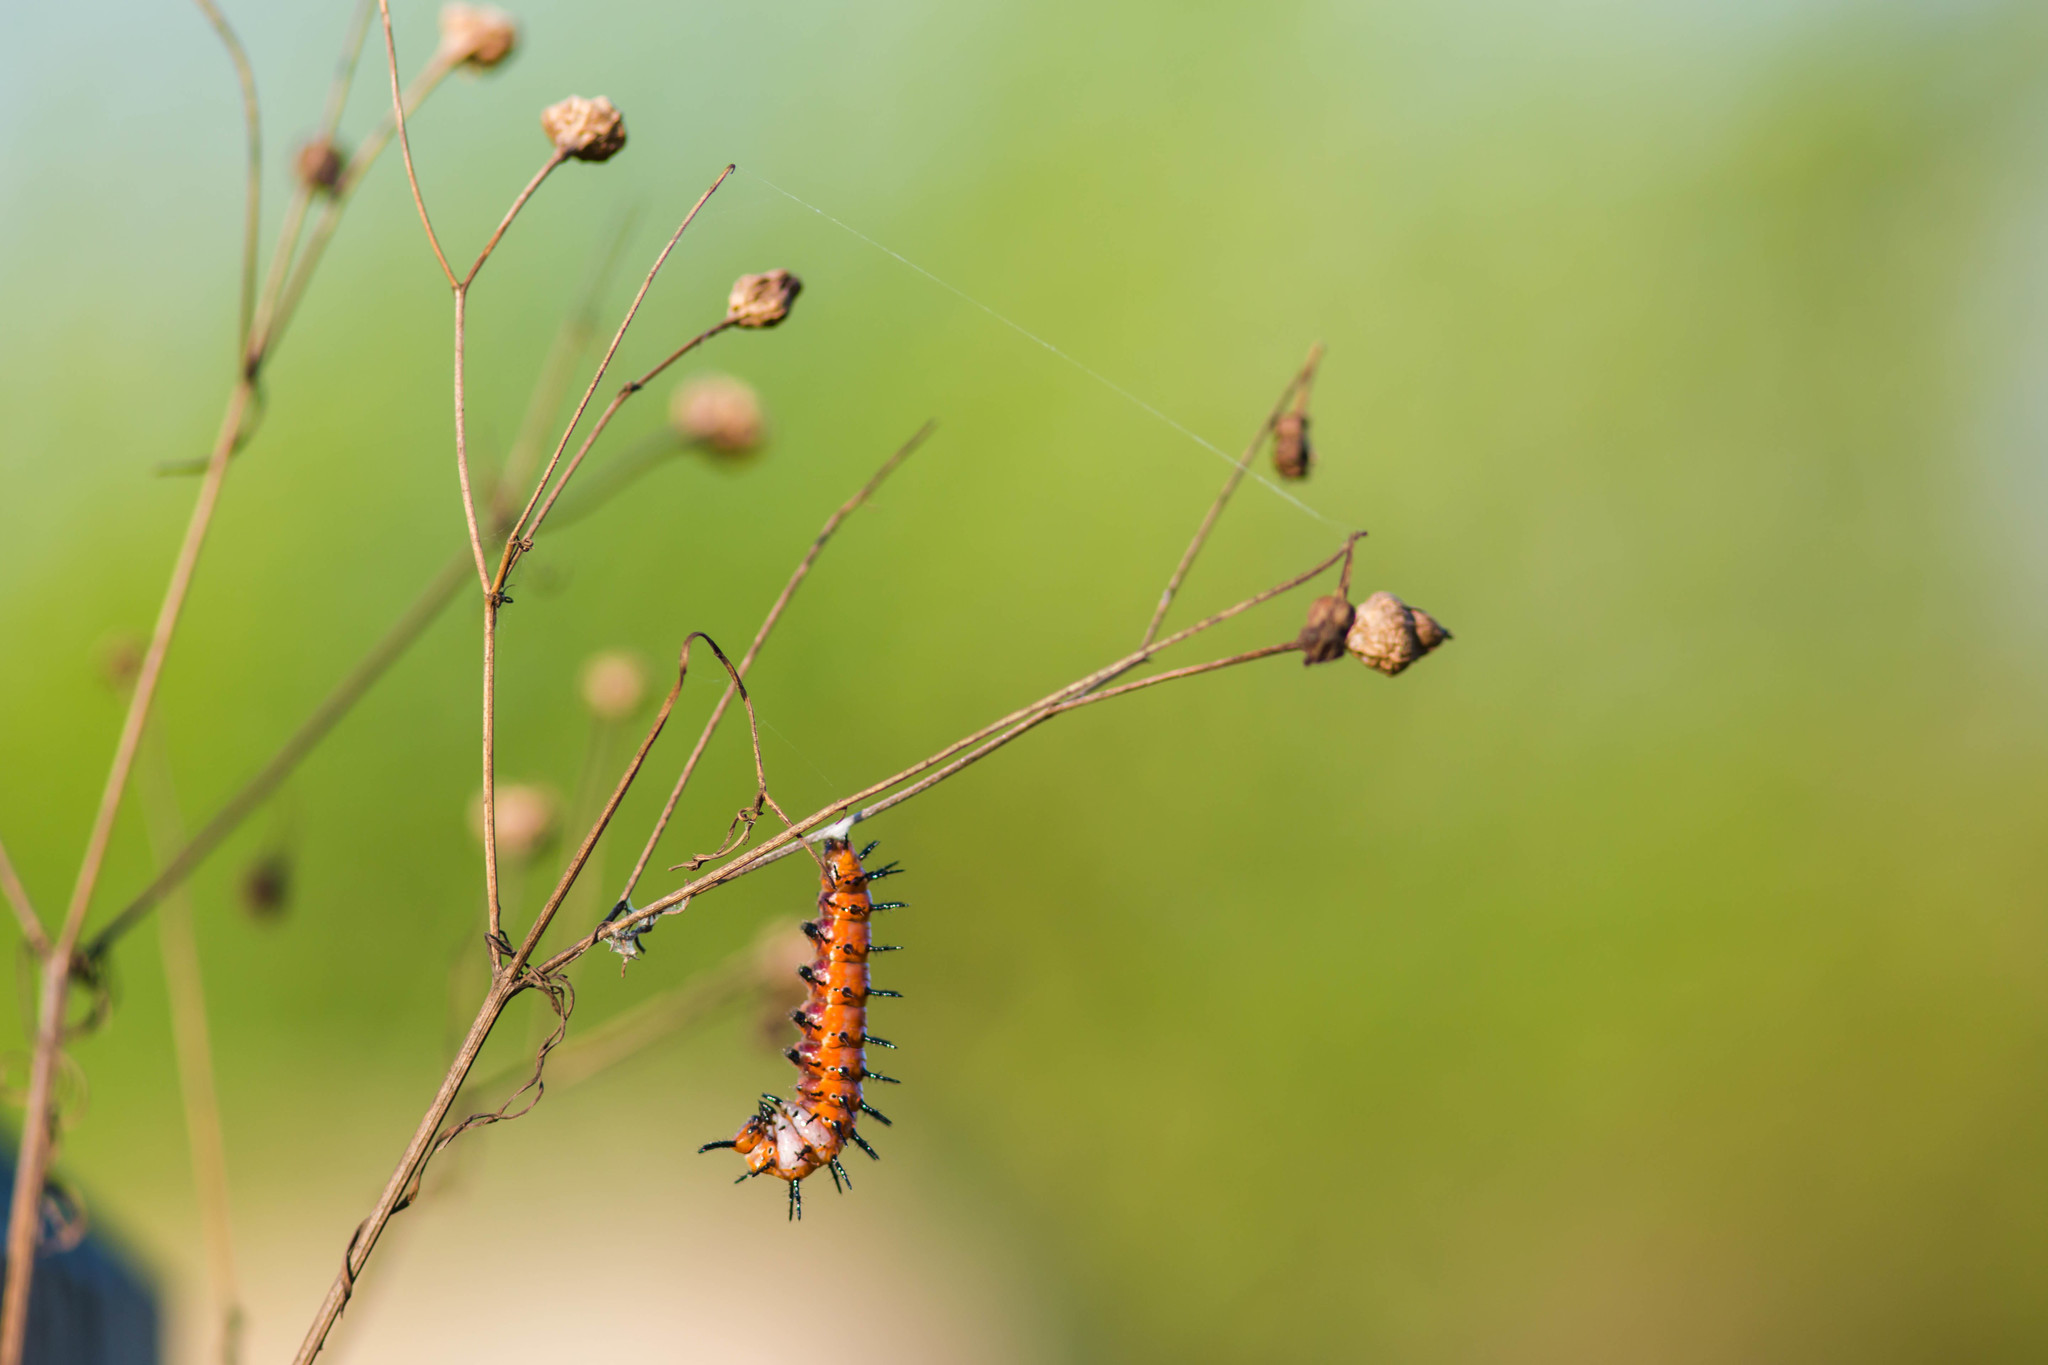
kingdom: Animalia
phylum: Arthropoda
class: Insecta
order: Lepidoptera
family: Nymphalidae
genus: Dione
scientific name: Dione vanillae
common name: Gulf fritillary
